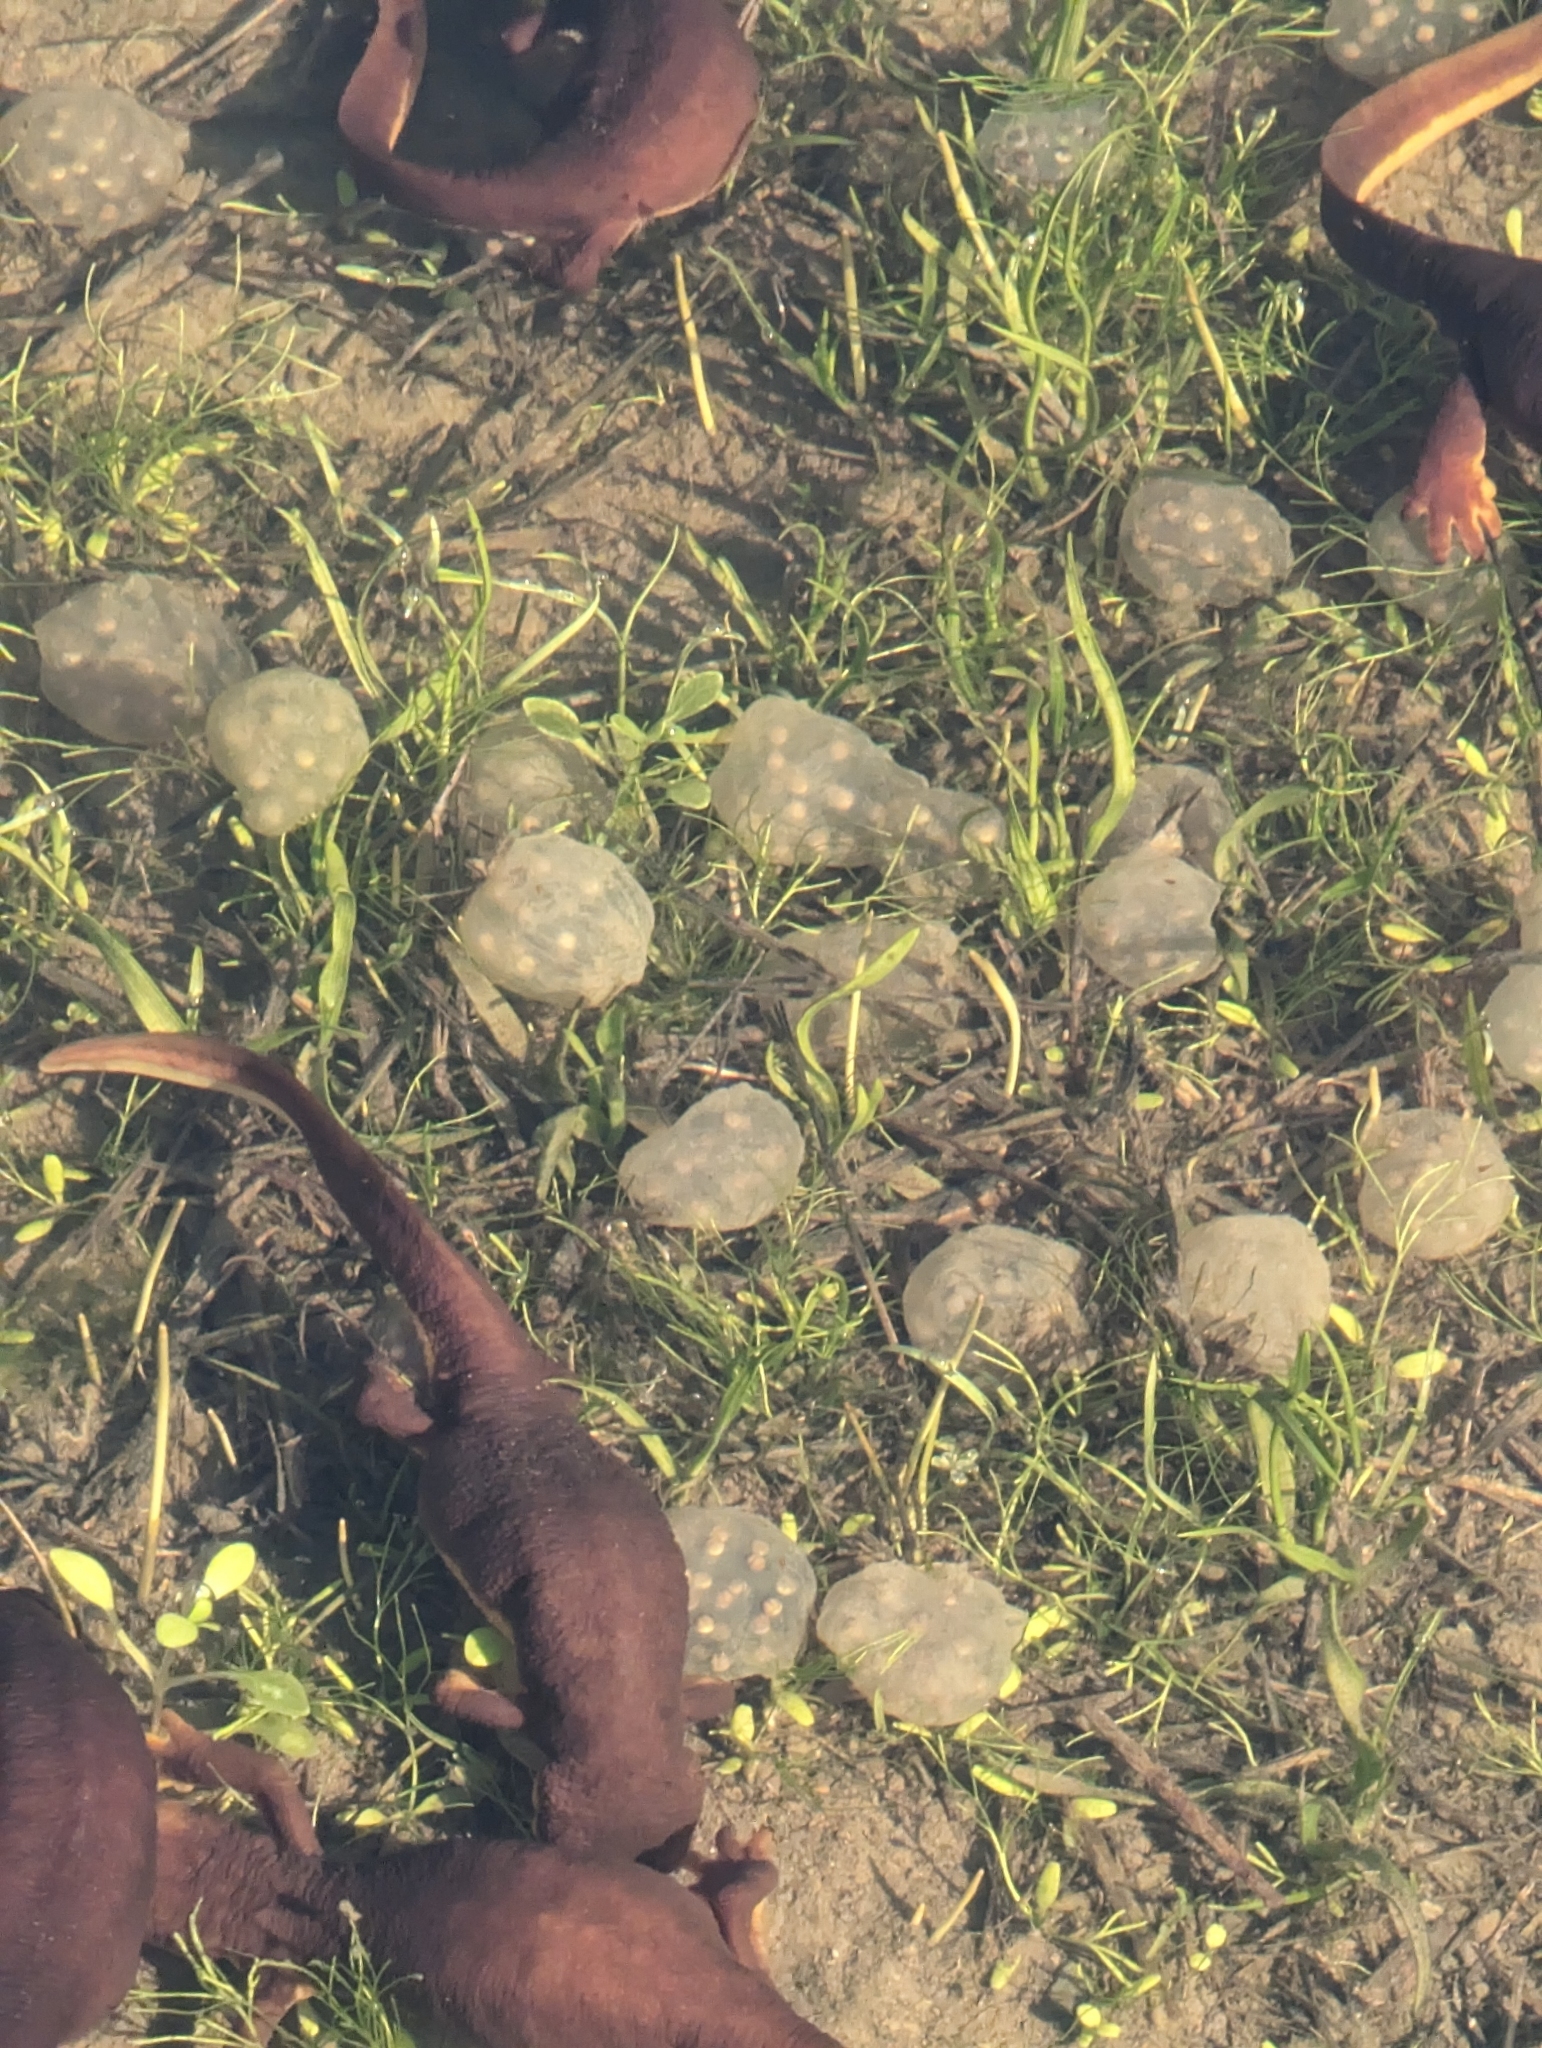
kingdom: Animalia
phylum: Chordata
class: Amphibia
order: Caudata
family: Salamandridae
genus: Taricha
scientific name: Taricha torosa
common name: California newt
